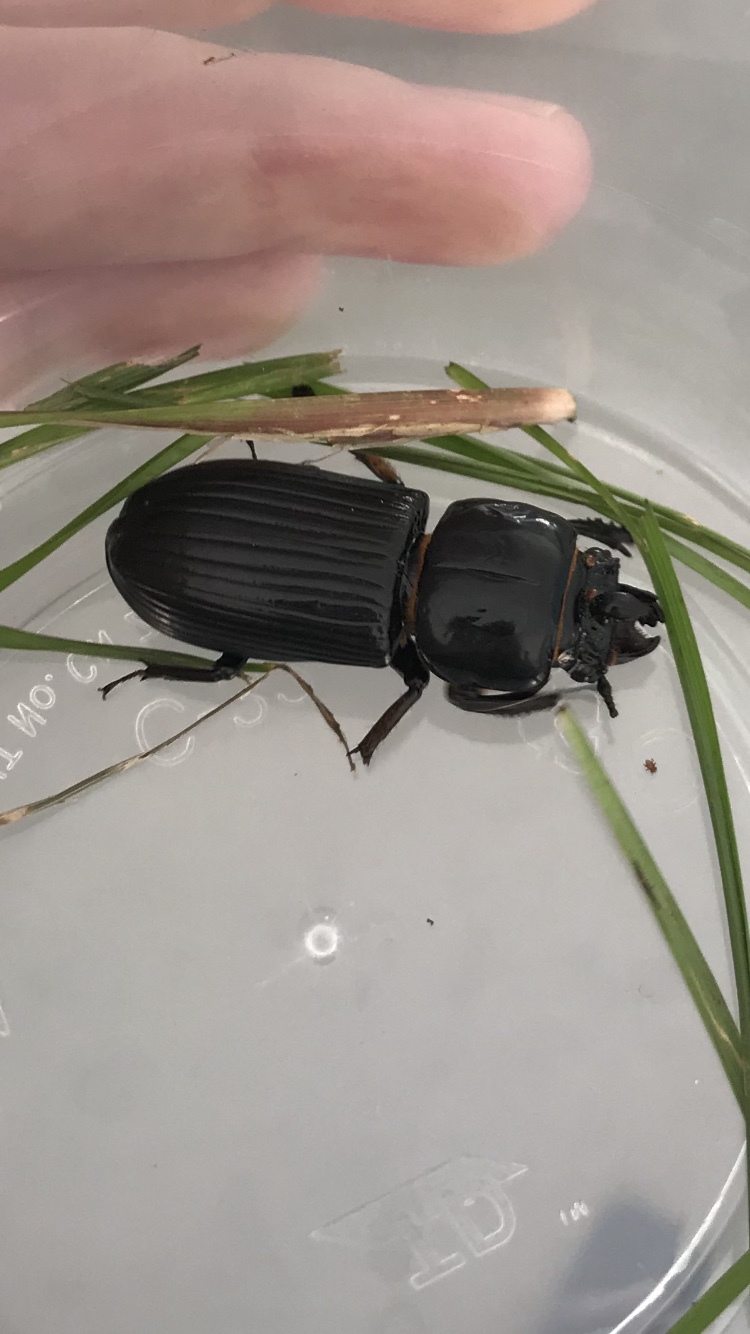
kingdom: Animalia
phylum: Arthropoda
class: Insecta
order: Coleoptera
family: Passalidae
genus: Odontotaenius
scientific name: Odontotaenius disjunctus
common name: Patent leather beetle
